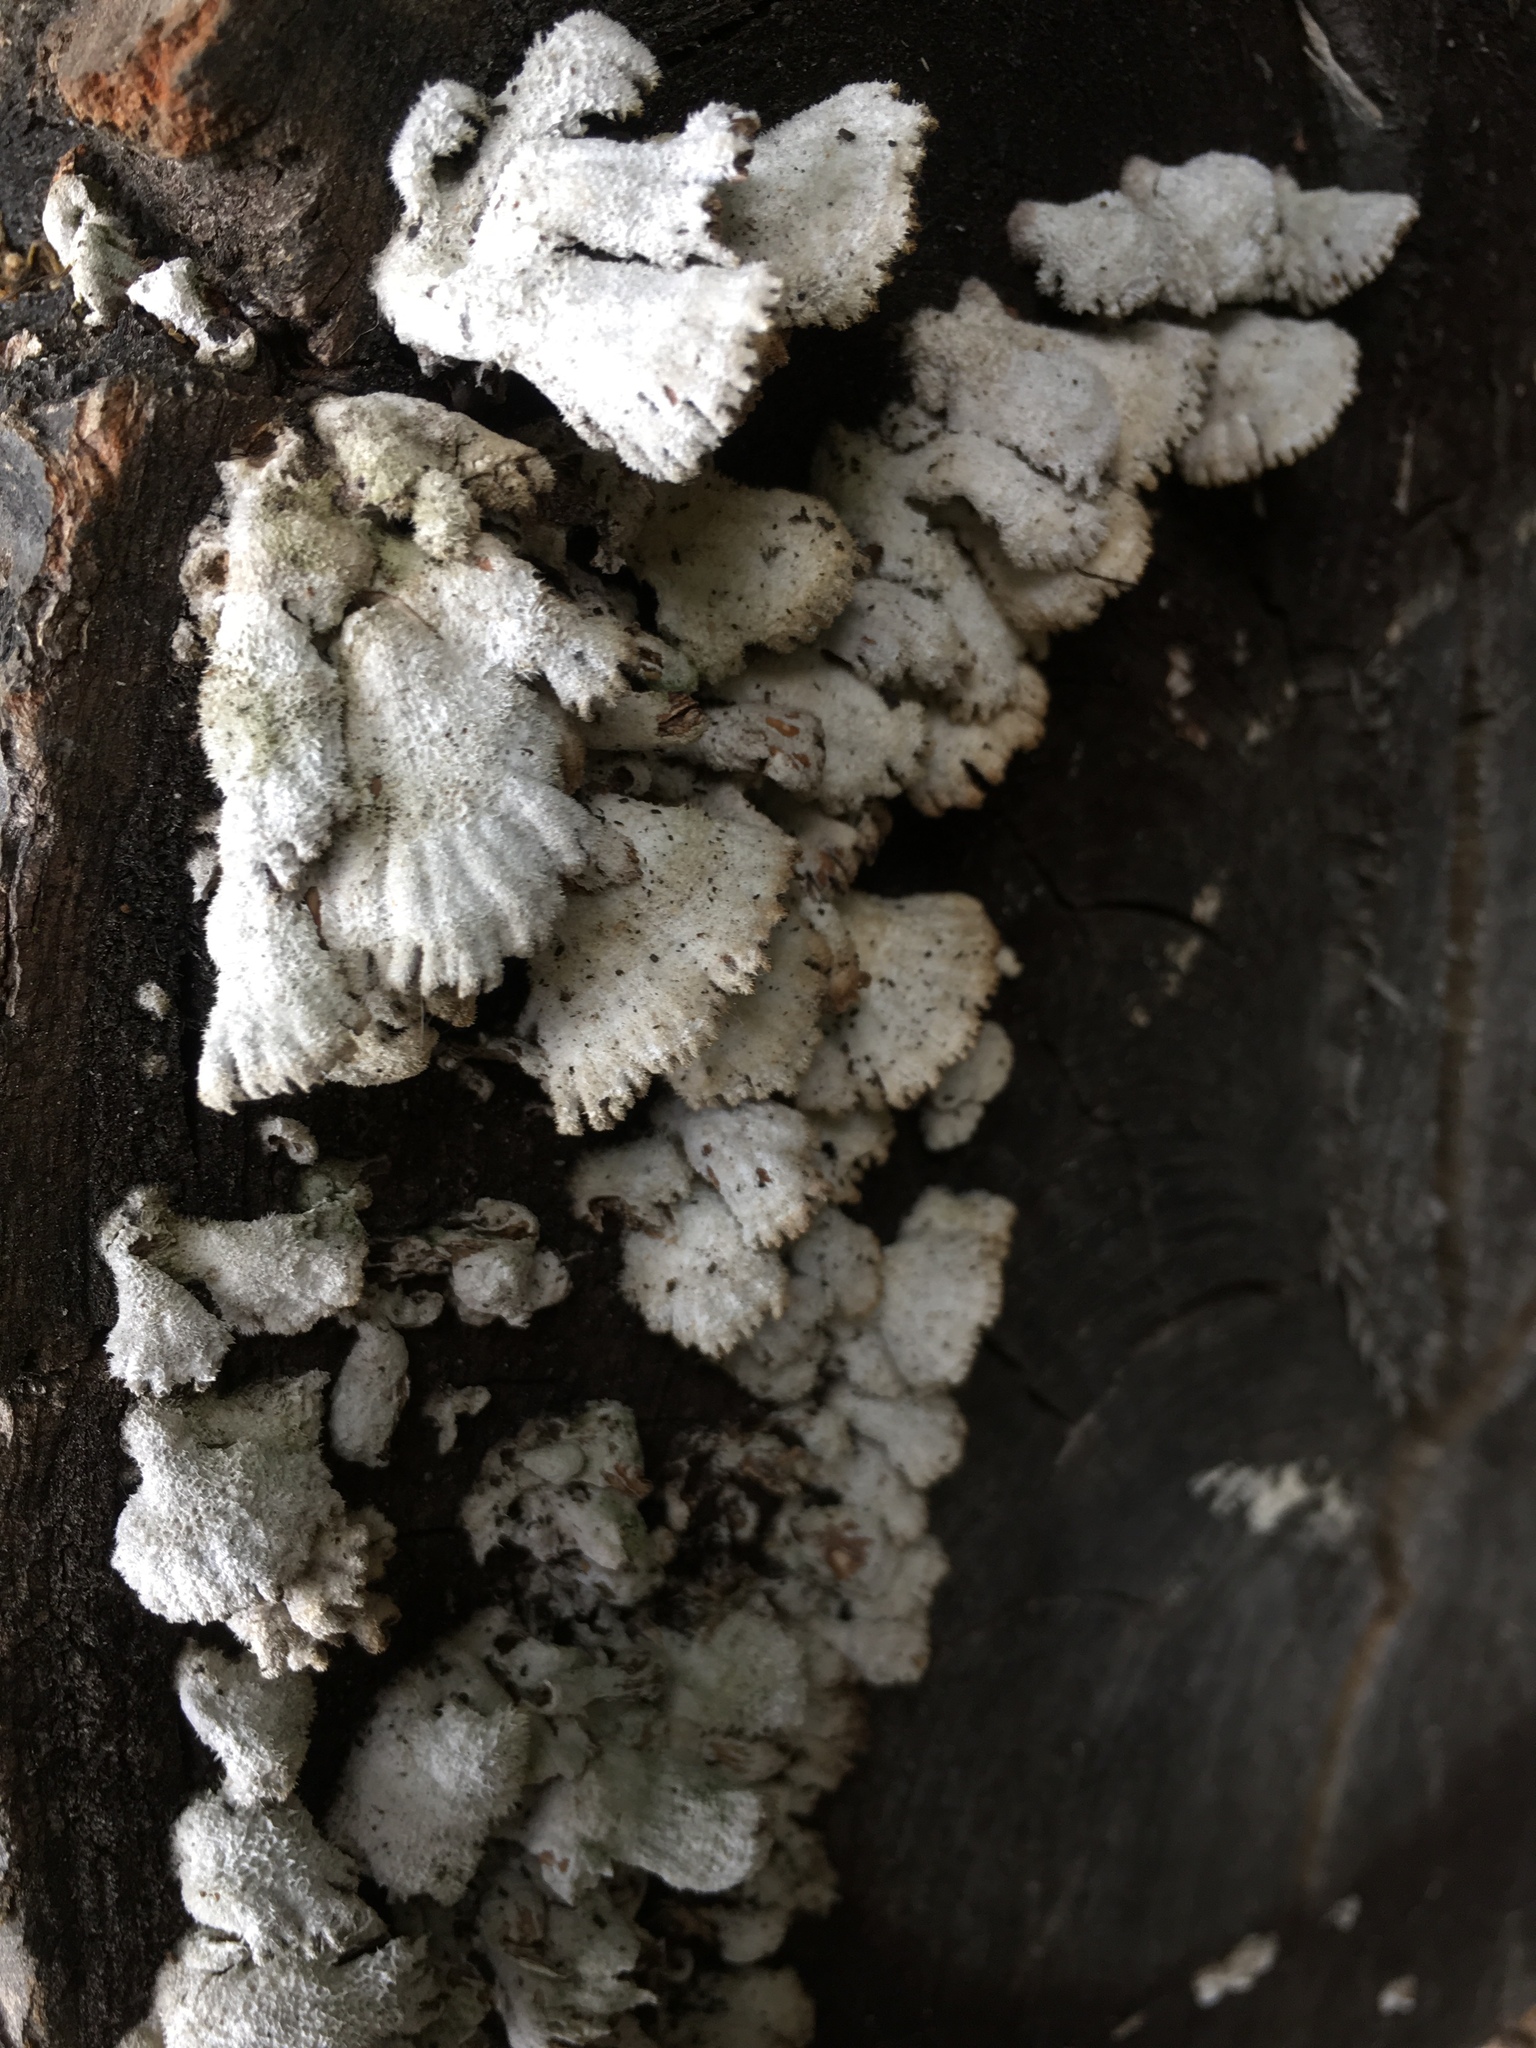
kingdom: Fungi
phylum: Basidiomycota
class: Agaricomycetes
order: Agaricales
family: Schizophyllaceae
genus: Schizophyllum
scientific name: Schizophyllum commune
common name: Common porecrust
